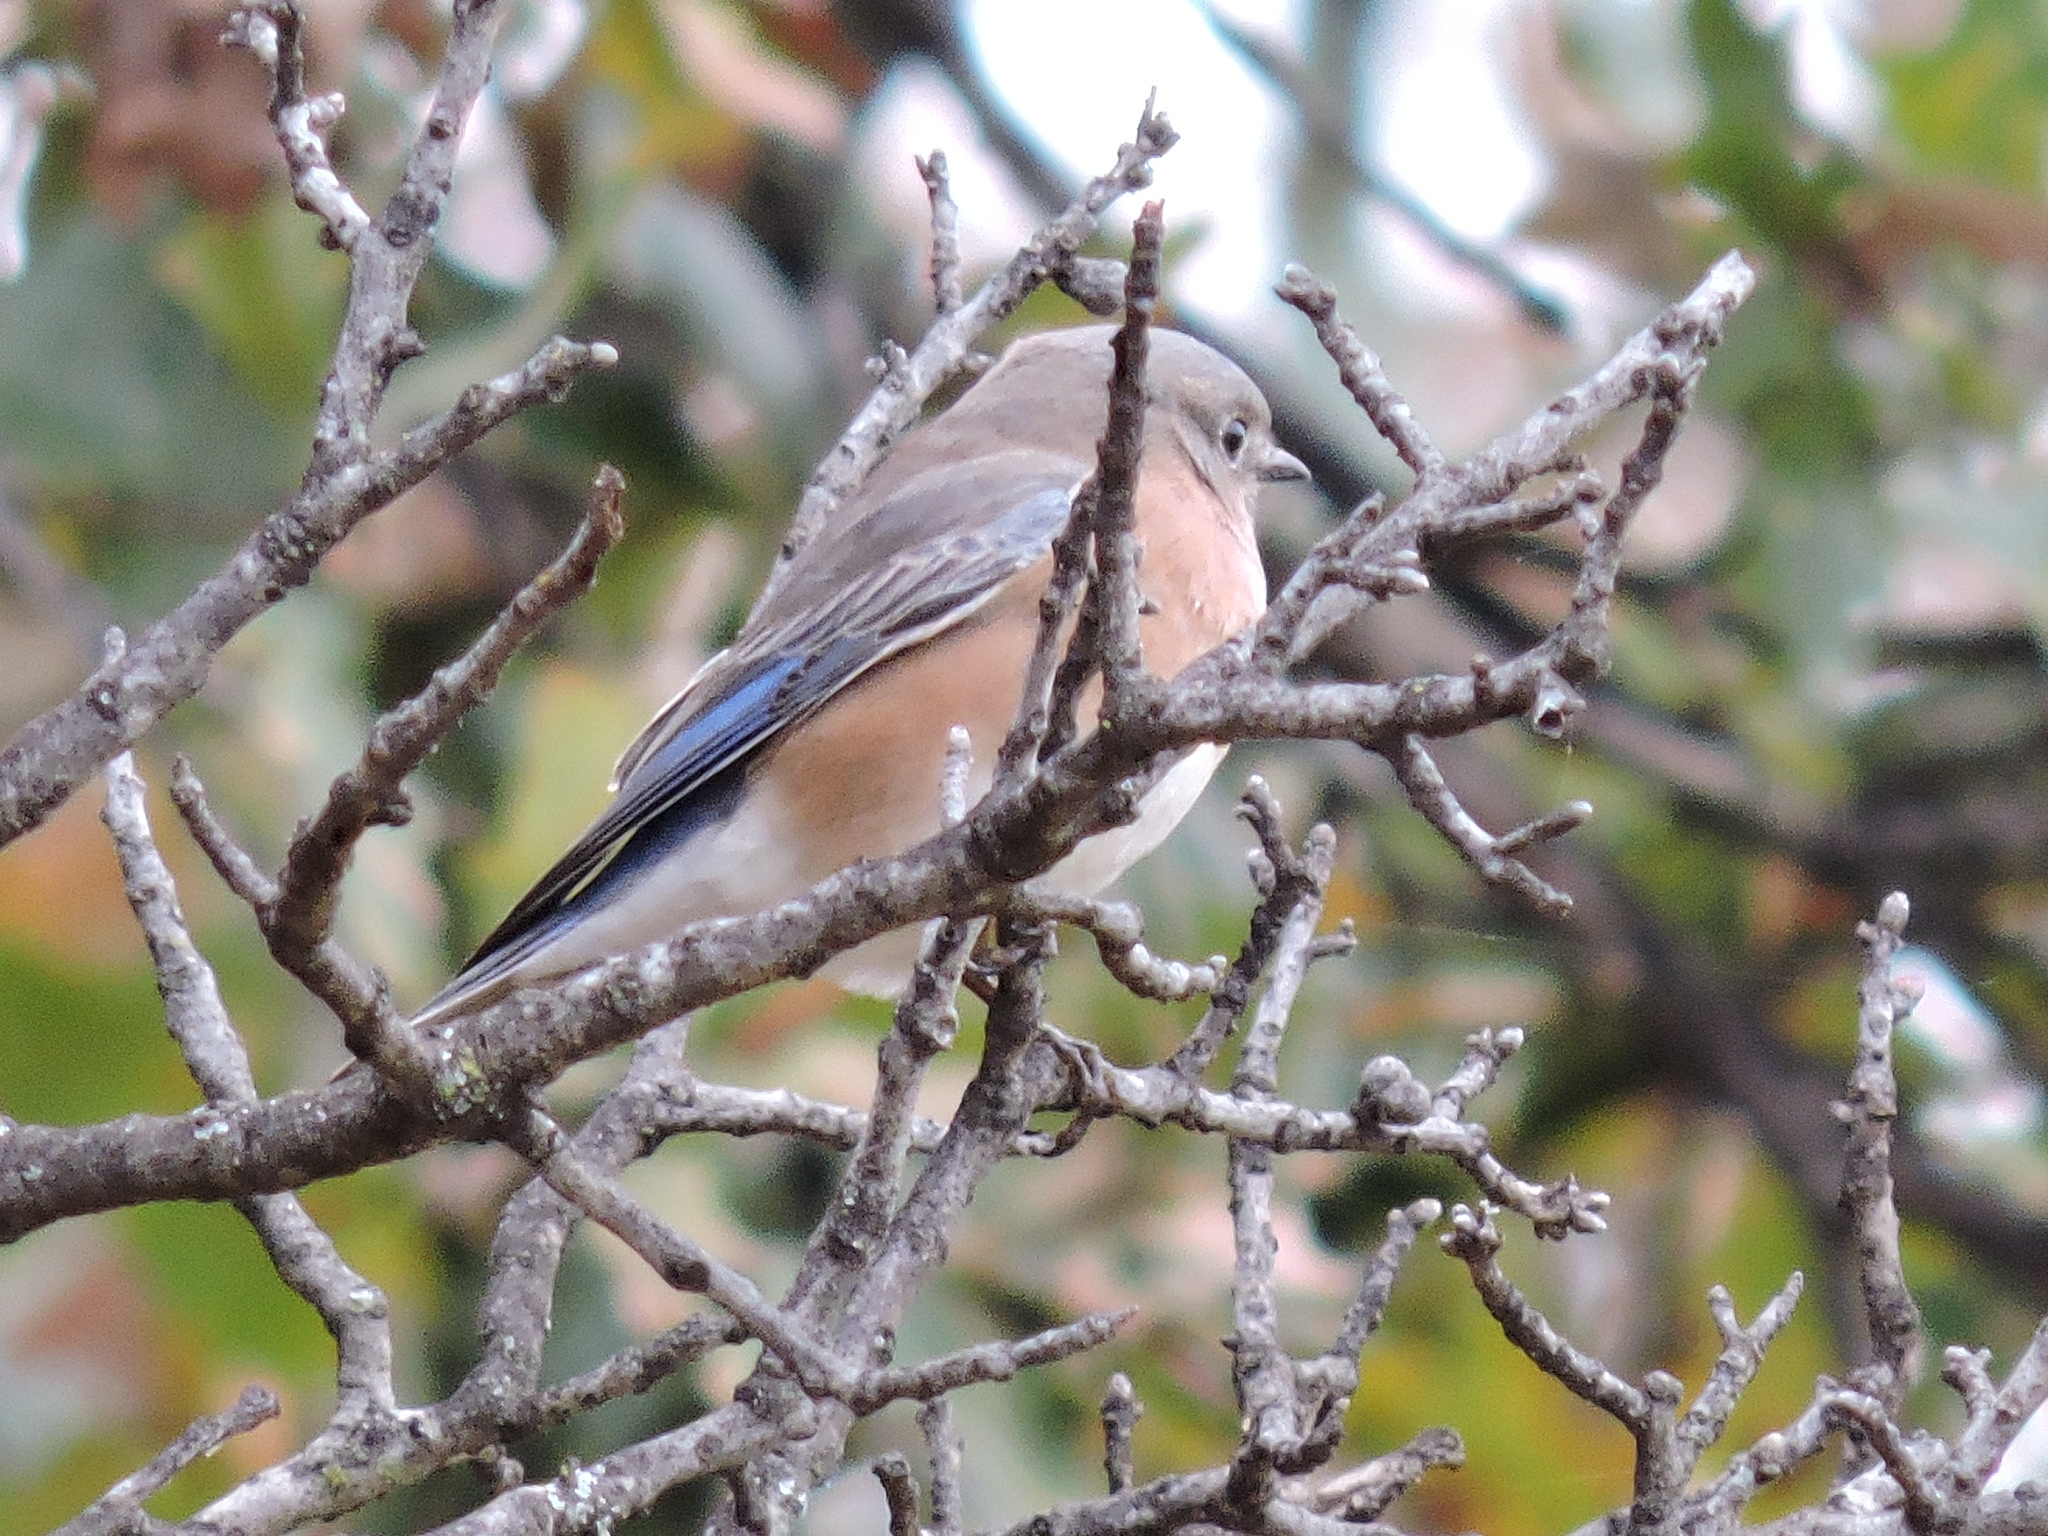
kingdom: Animalia
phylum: Chordata
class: Aves
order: Passeriformes
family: Turdidae
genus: Sialia
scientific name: Sialia sialis
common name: Eastern bluebird
